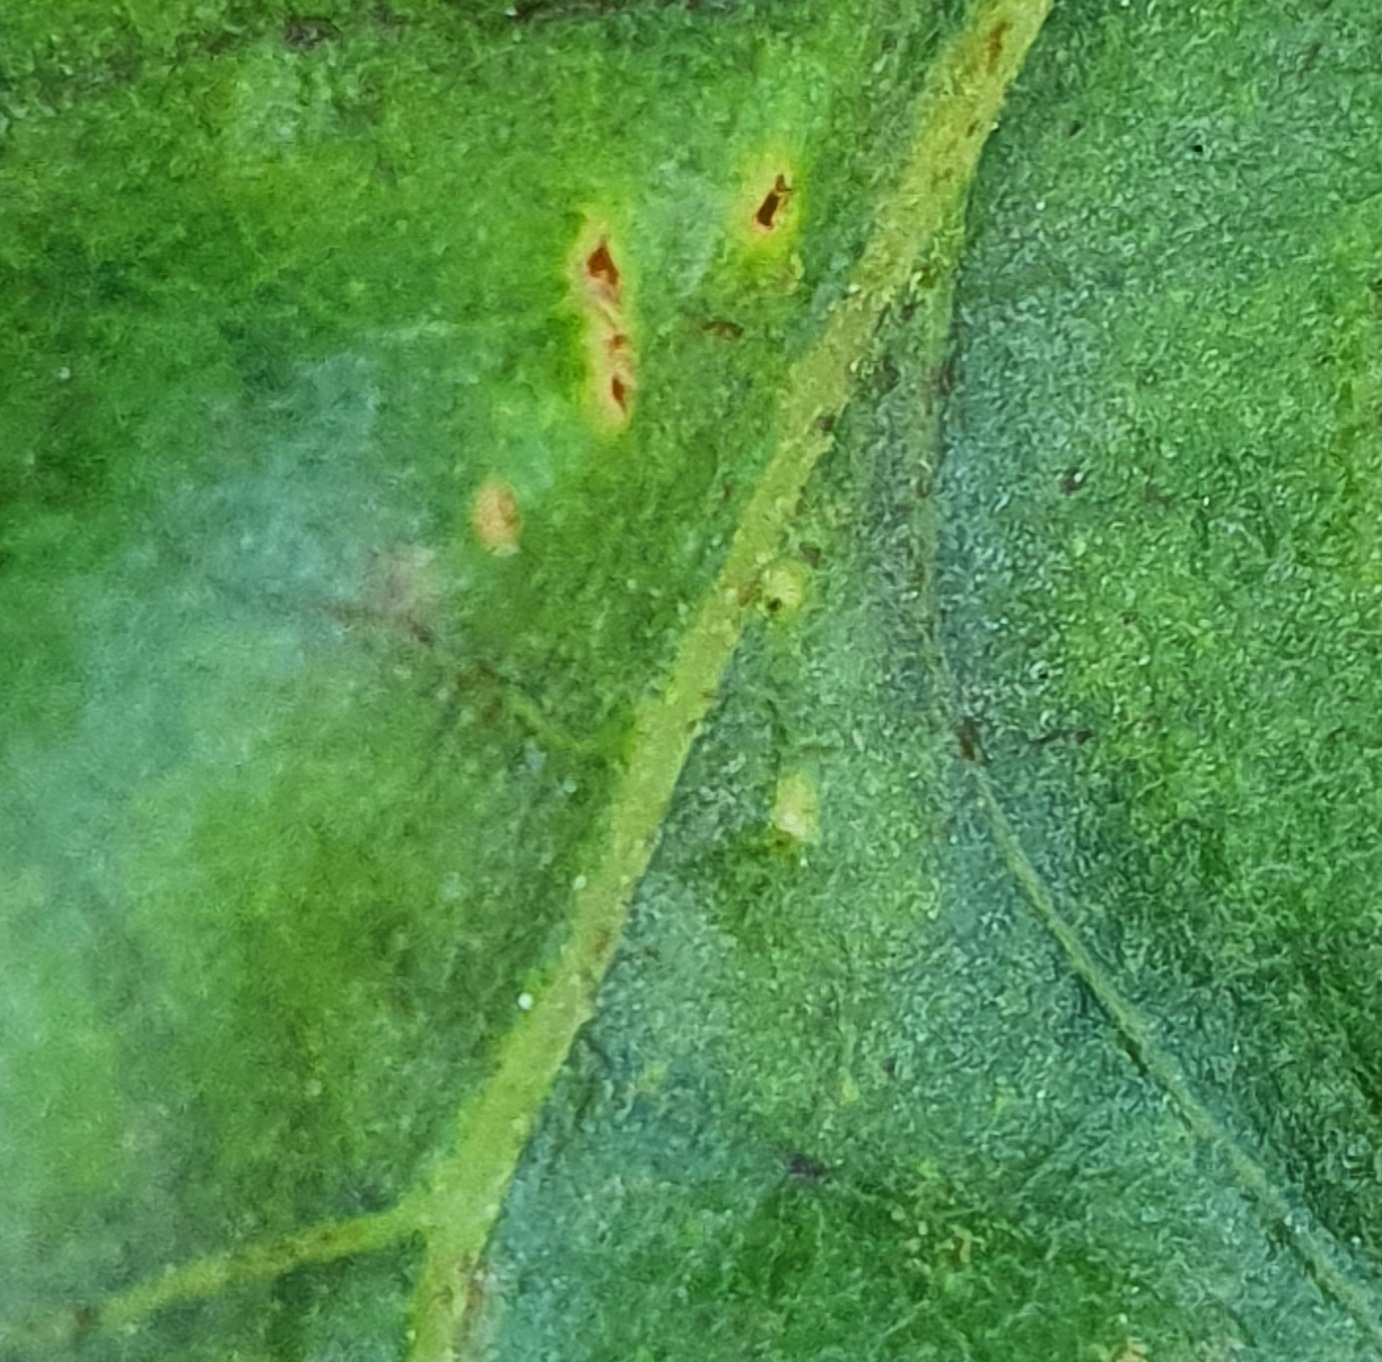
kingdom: Animalia
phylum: Arthropoda
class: Insecta
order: Hymenoptera
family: Cynipidae
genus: Neuroterus
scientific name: Neuroterus anthracinus
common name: Oyster gall
